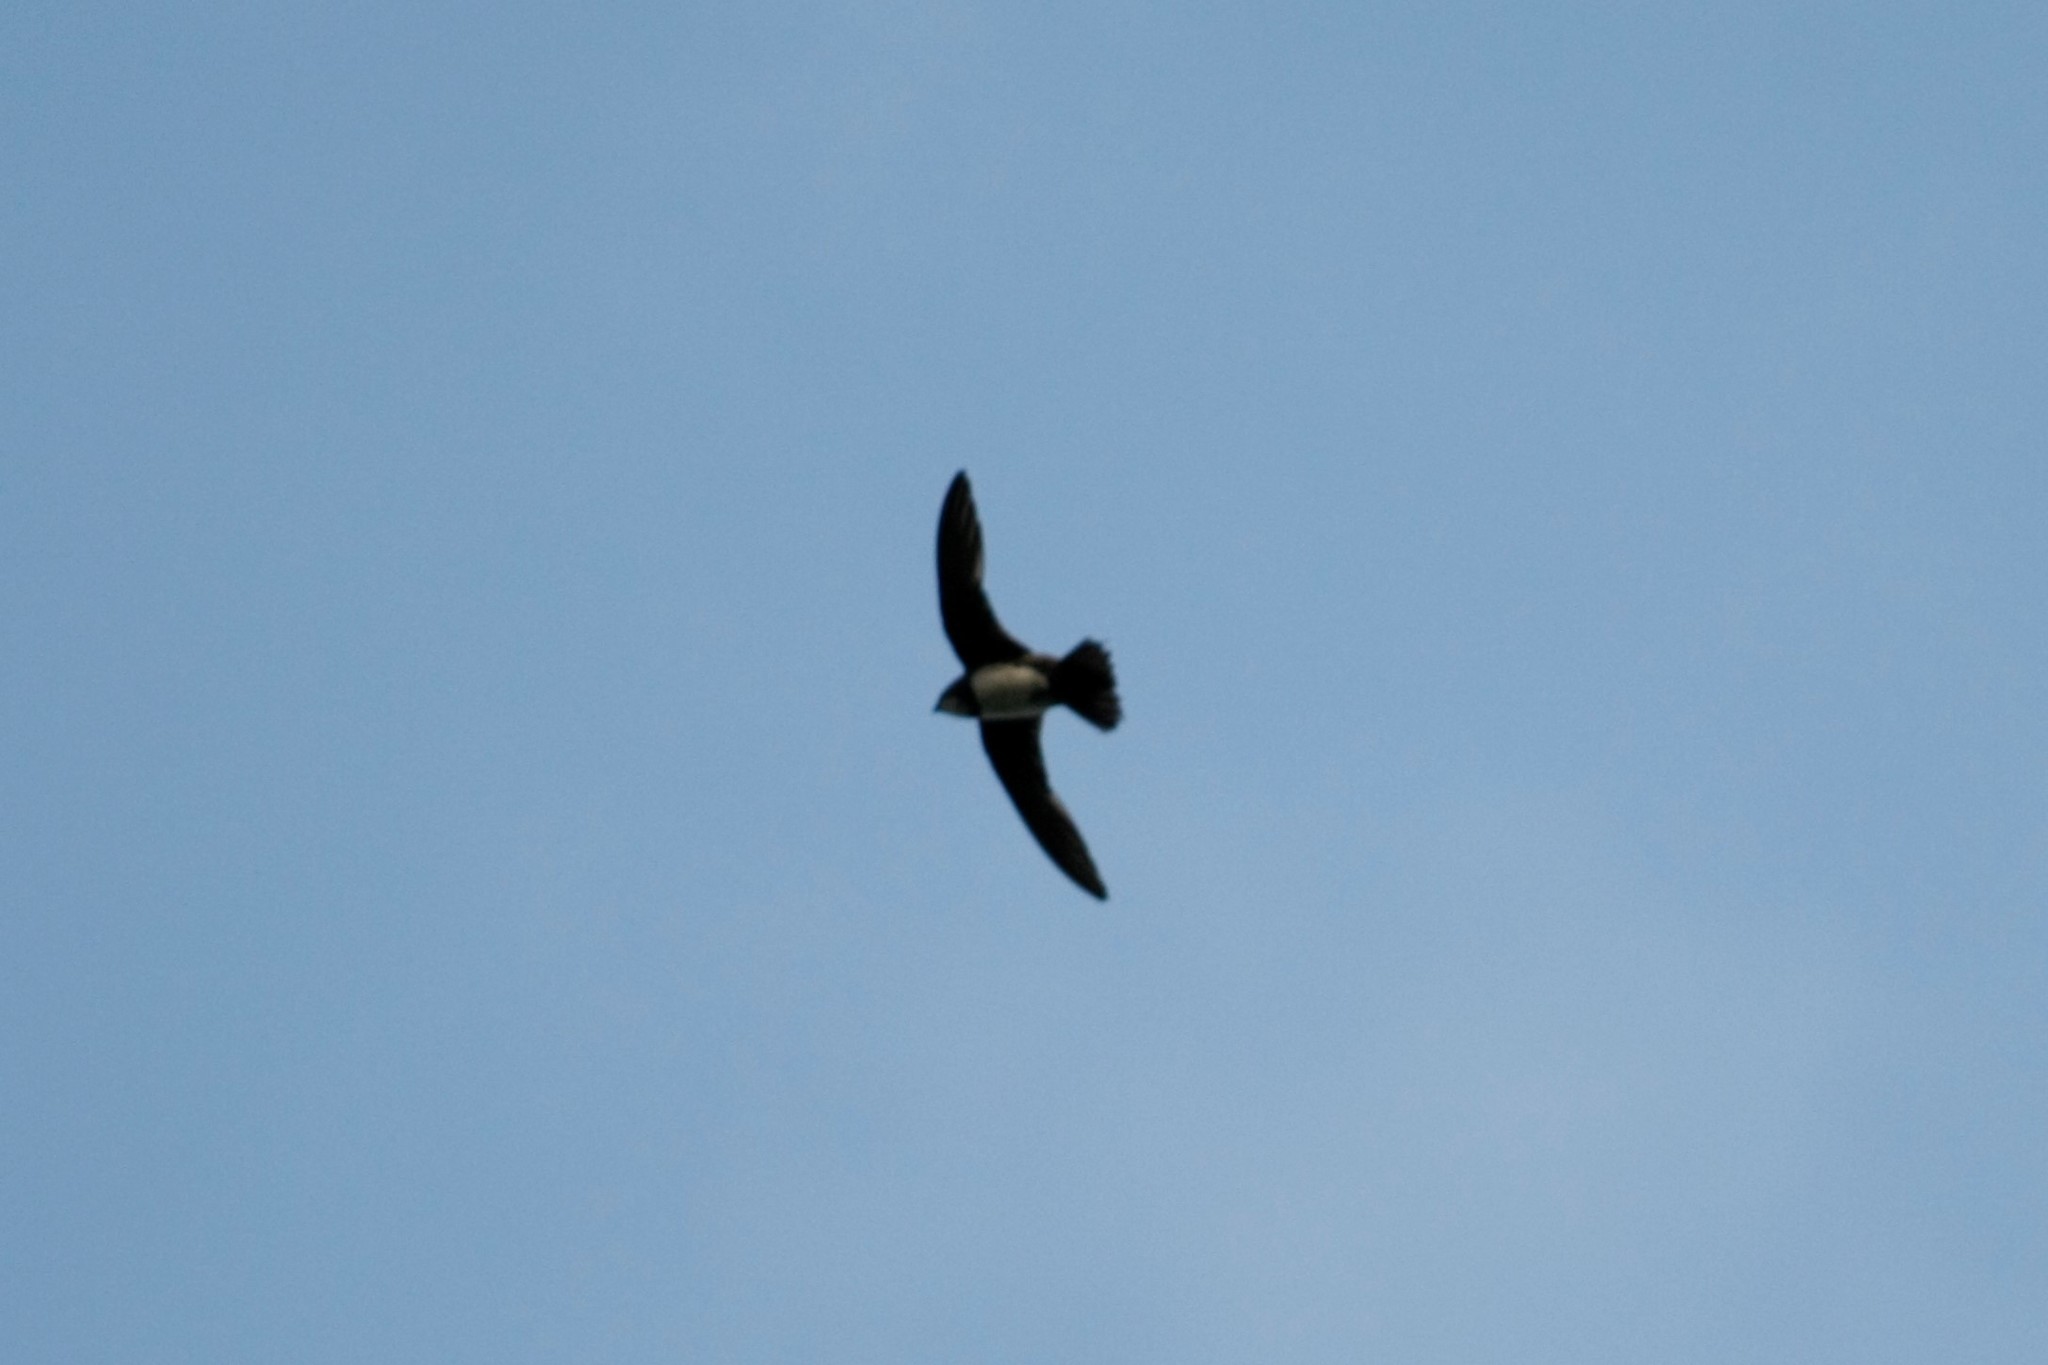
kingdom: Animalia
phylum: Chordata
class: Aves
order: Apodiformes
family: Apodidae
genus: Tachymarptis
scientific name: Tachymarptis melba
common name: Alpine swift
